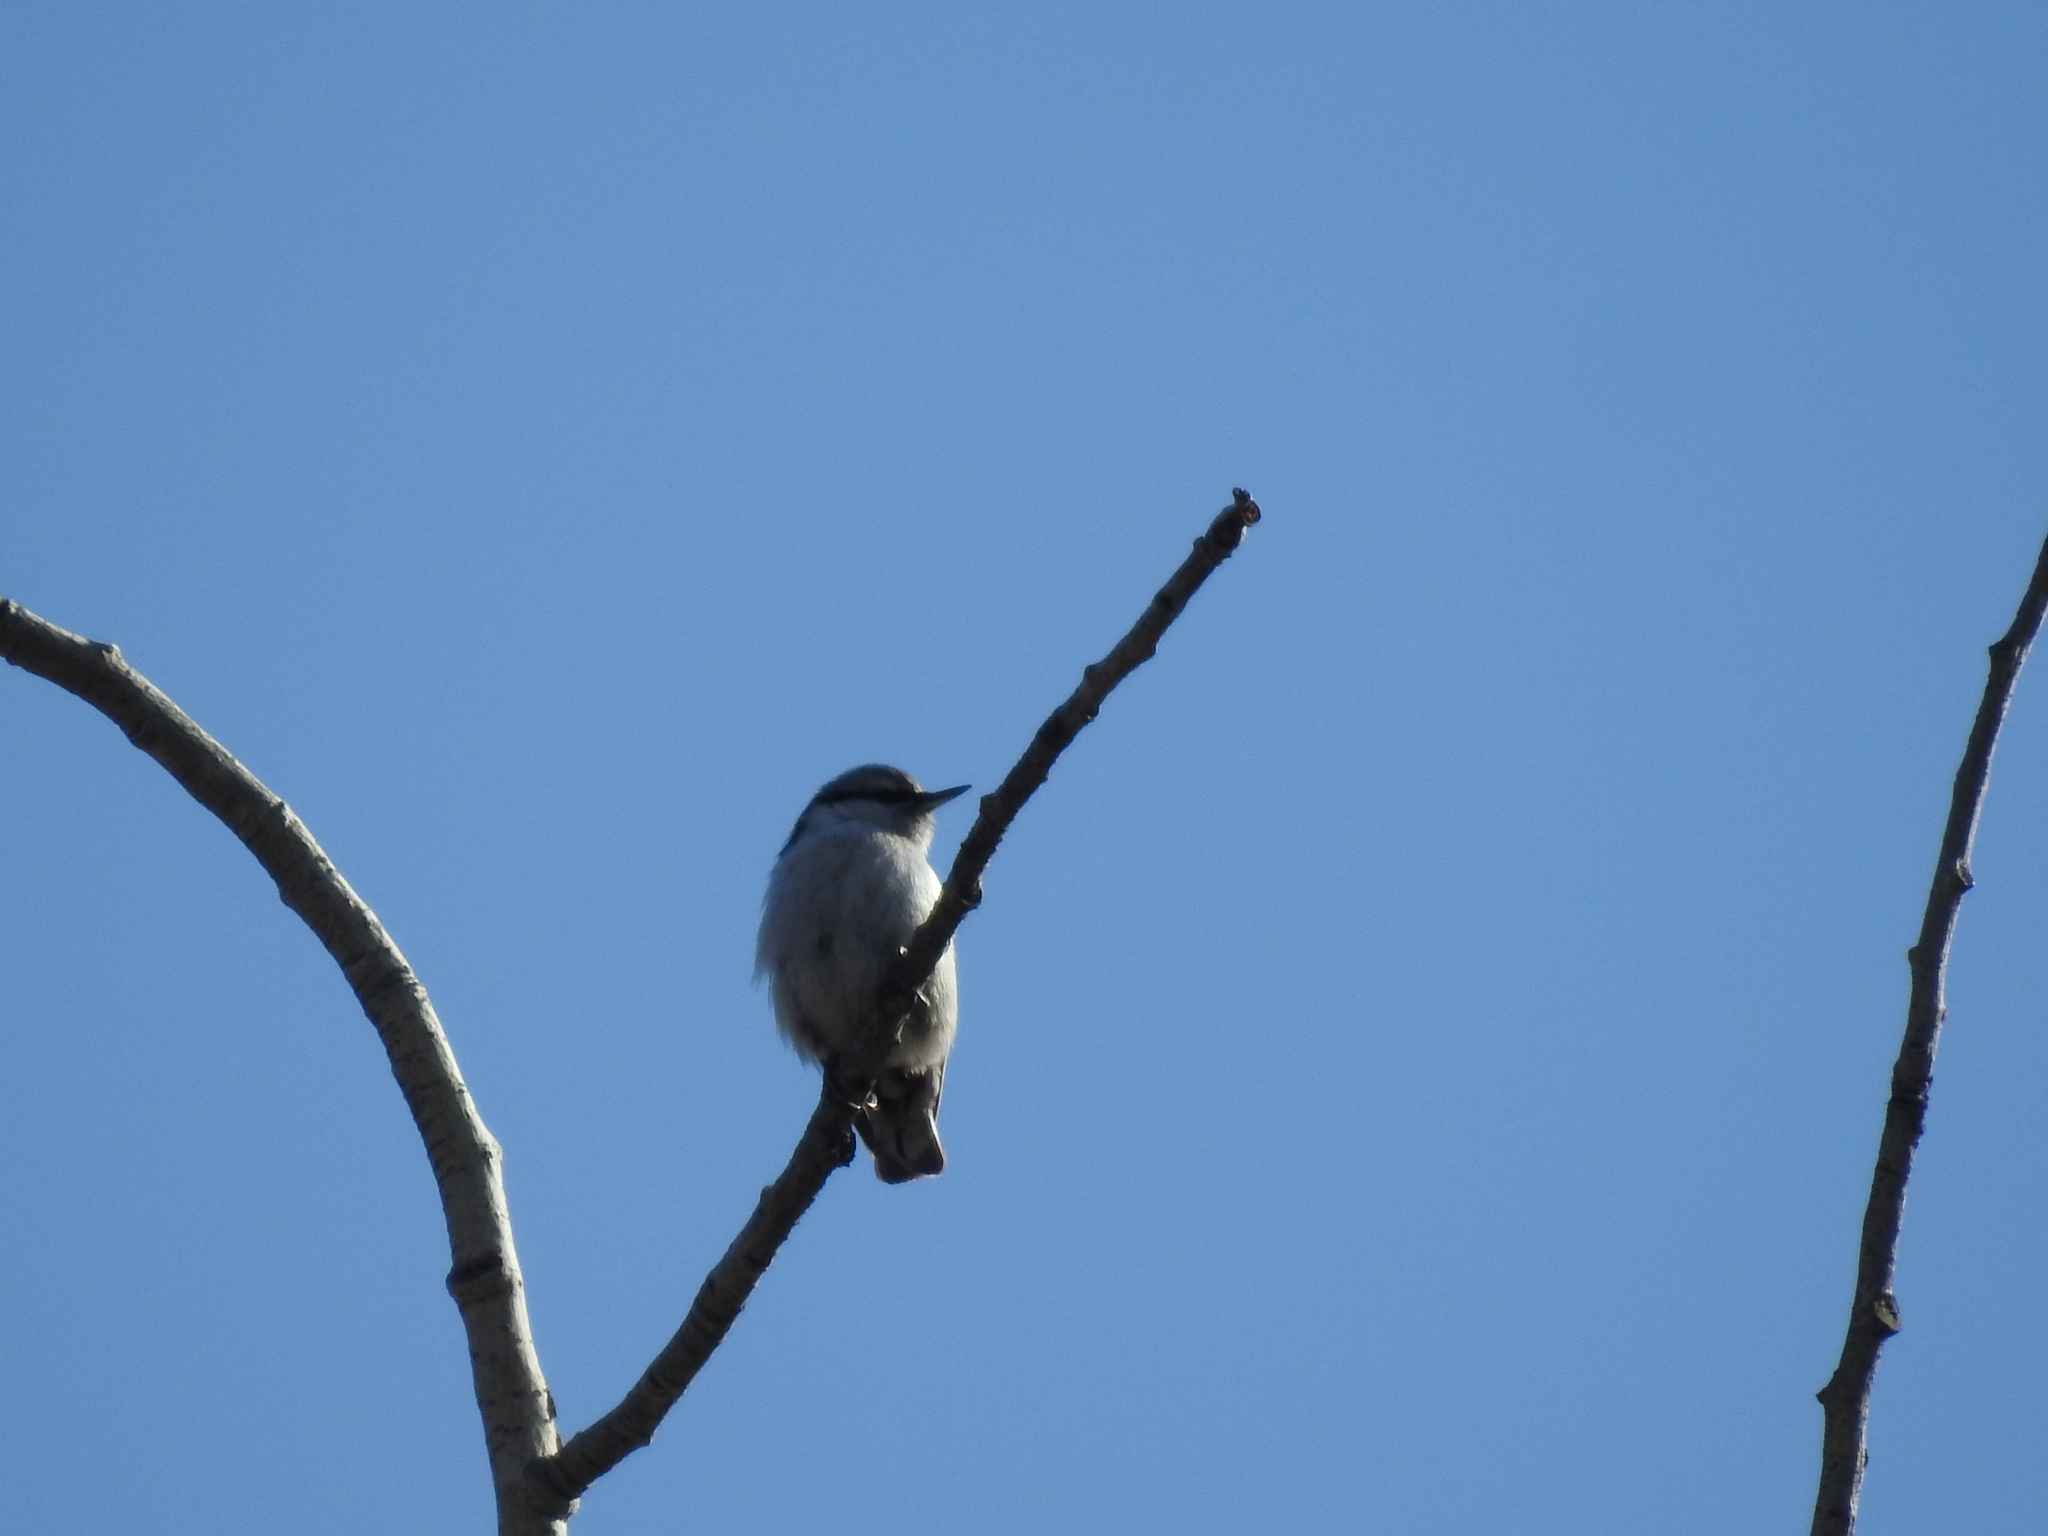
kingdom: Animalia
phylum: Chordata
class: Aves
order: Passeriformes
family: Sittidae
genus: Sitta
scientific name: Sitta europaea
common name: Eurasian nuthatch
